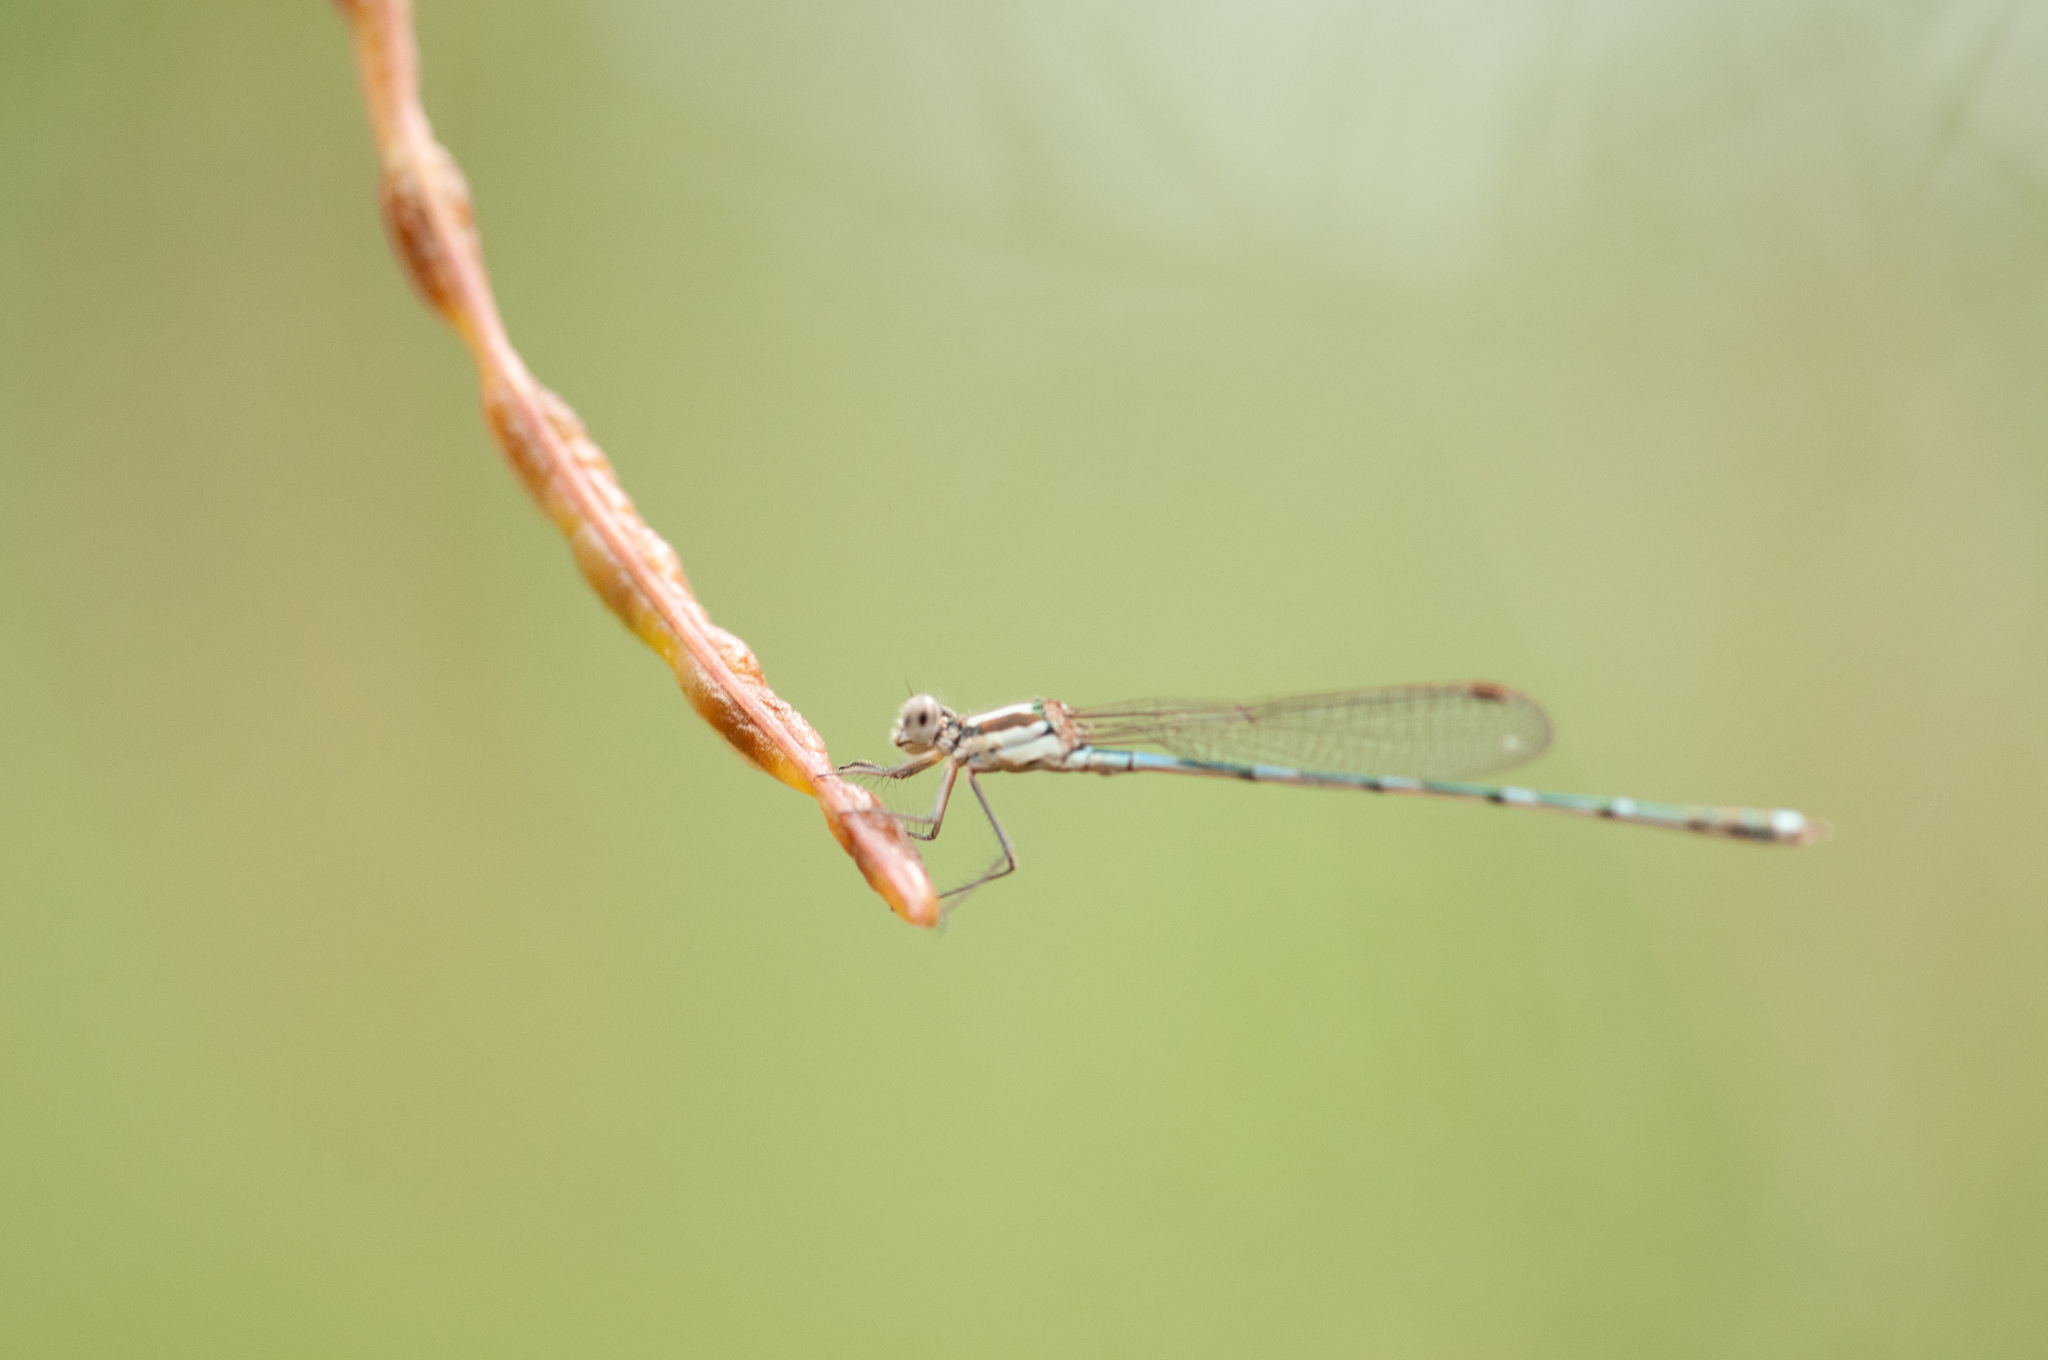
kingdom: Animalia
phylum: Arthropoda
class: Insecta
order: Odonata
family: Lestidae
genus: Austrolestes
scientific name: Austrolestes leda
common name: Wandering ringtail
